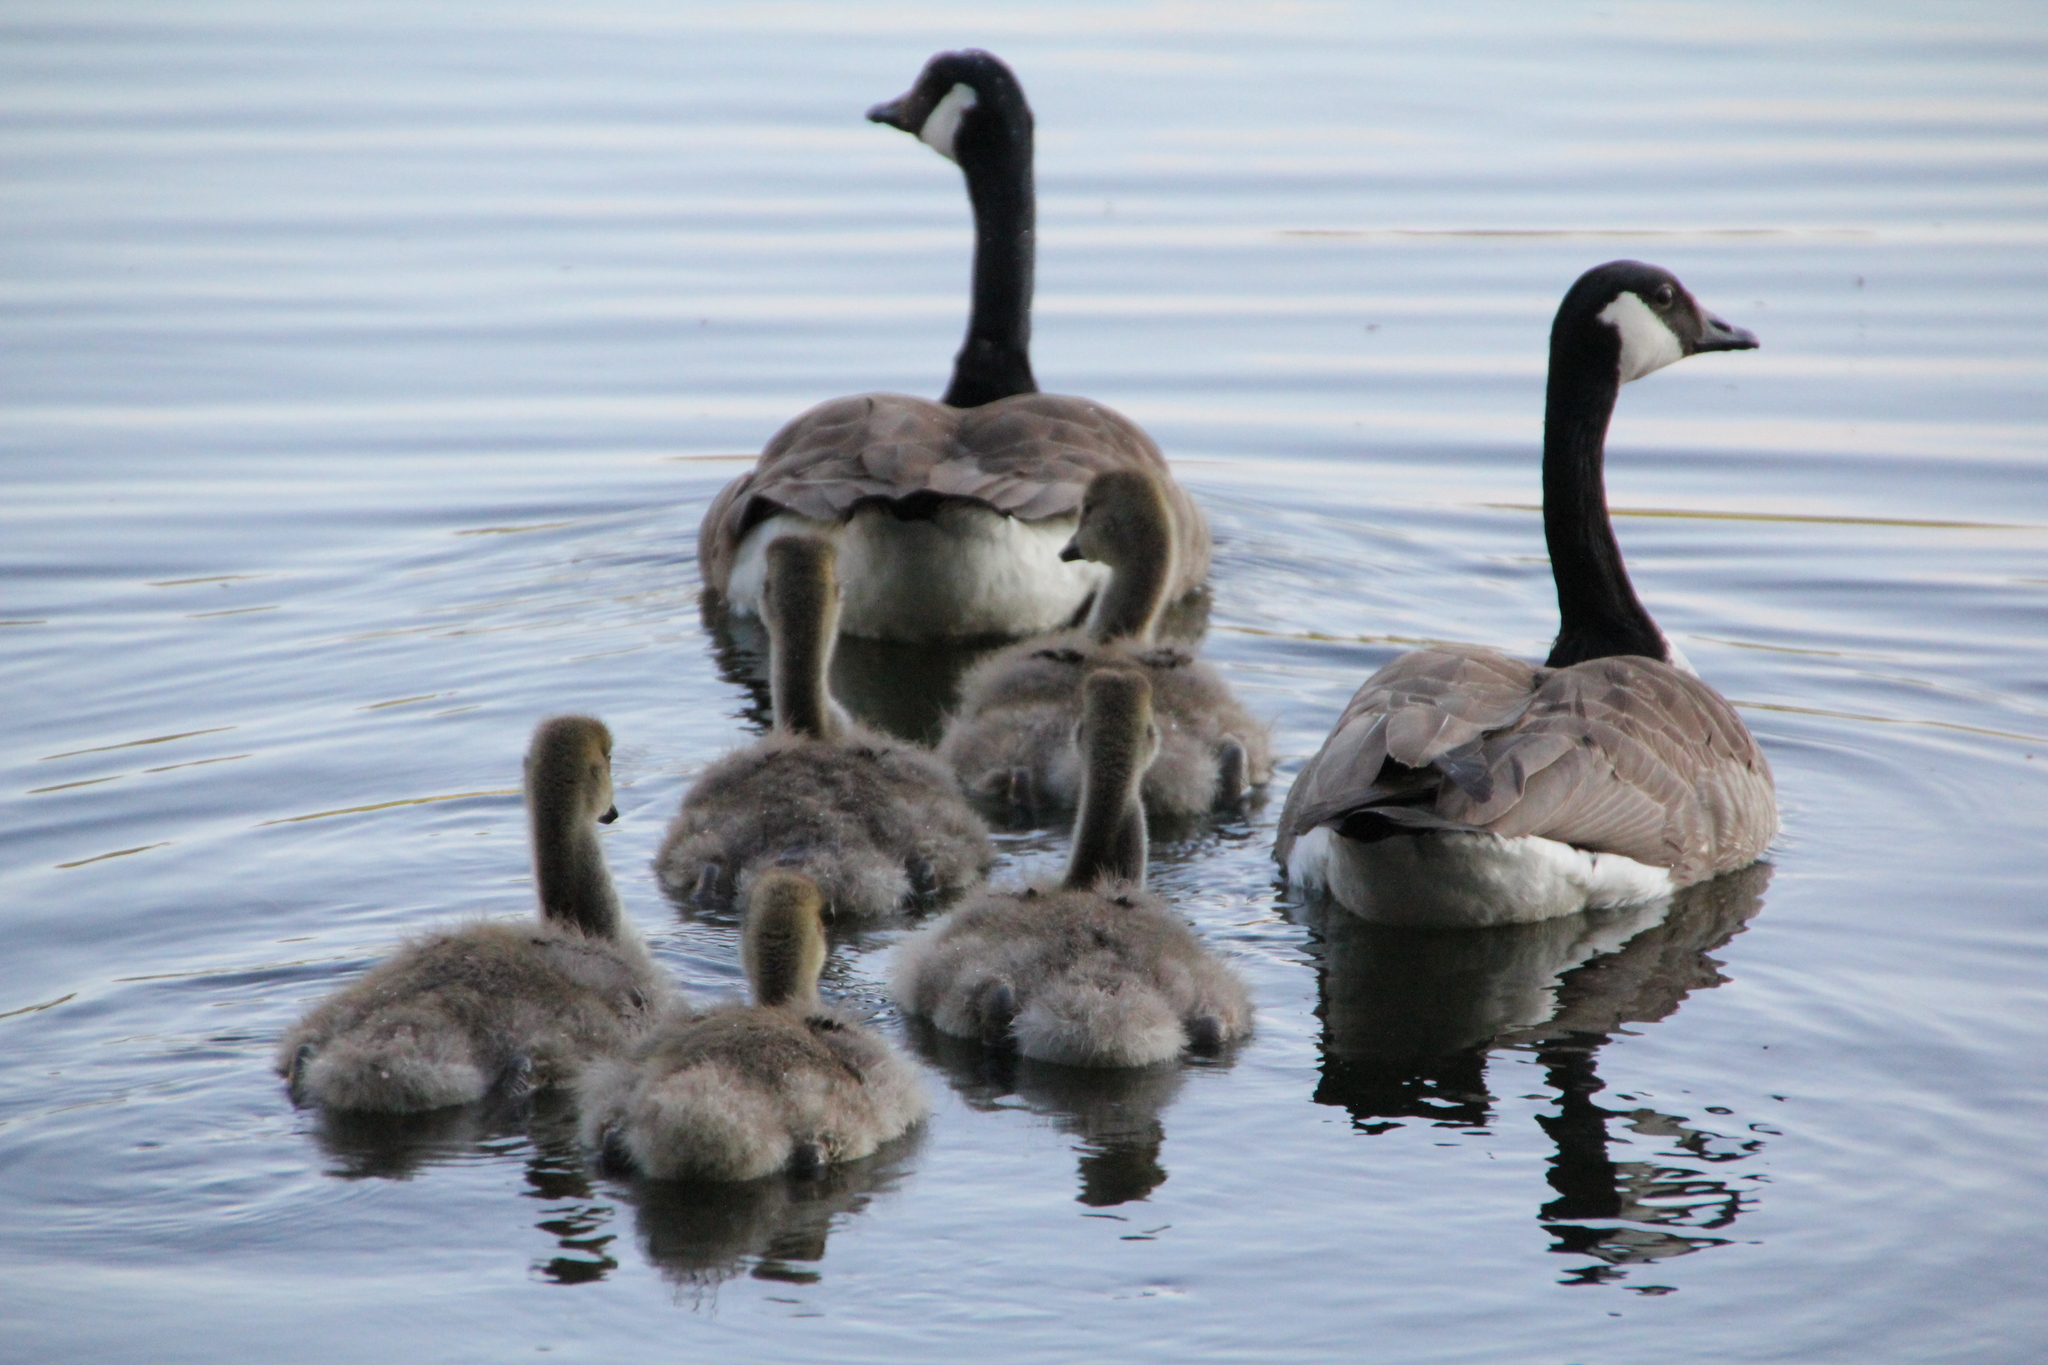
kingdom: Animalia
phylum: Chordata
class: Aves
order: Anseriformes
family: Anatidae
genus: Branta
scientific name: Branta canadensis
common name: Canada goose
